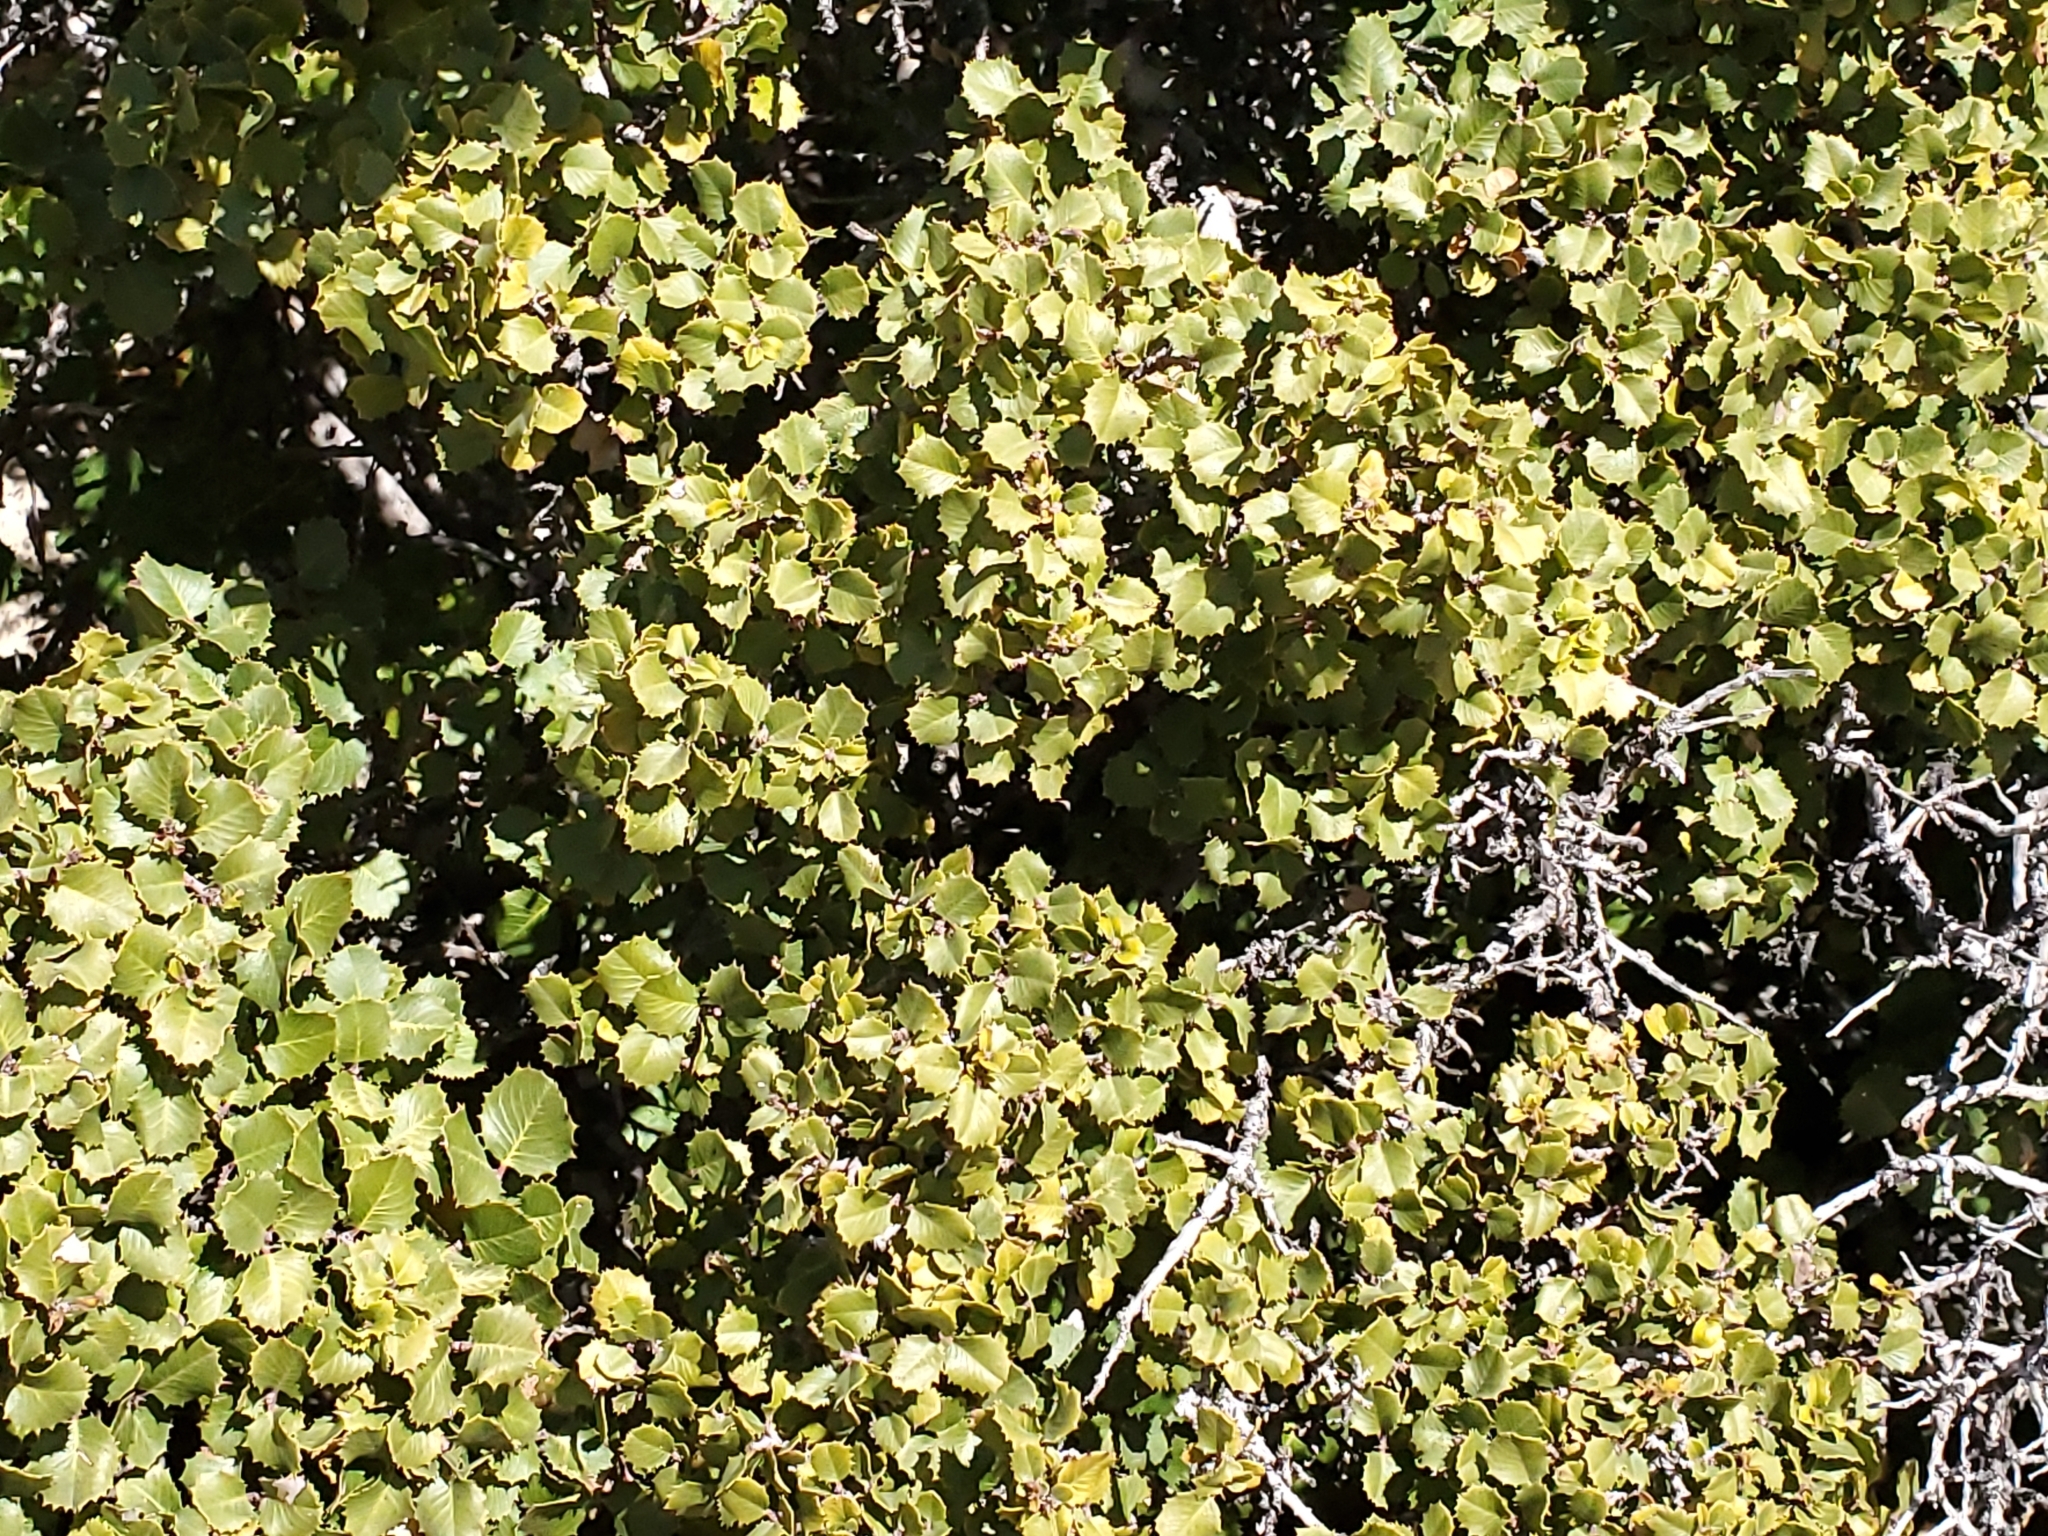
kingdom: Plantae
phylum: Tracheophyta
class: Magnoliopsida
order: Rosales
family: Rhamnaceae
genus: Endotropis
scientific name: Endotropis crocea
